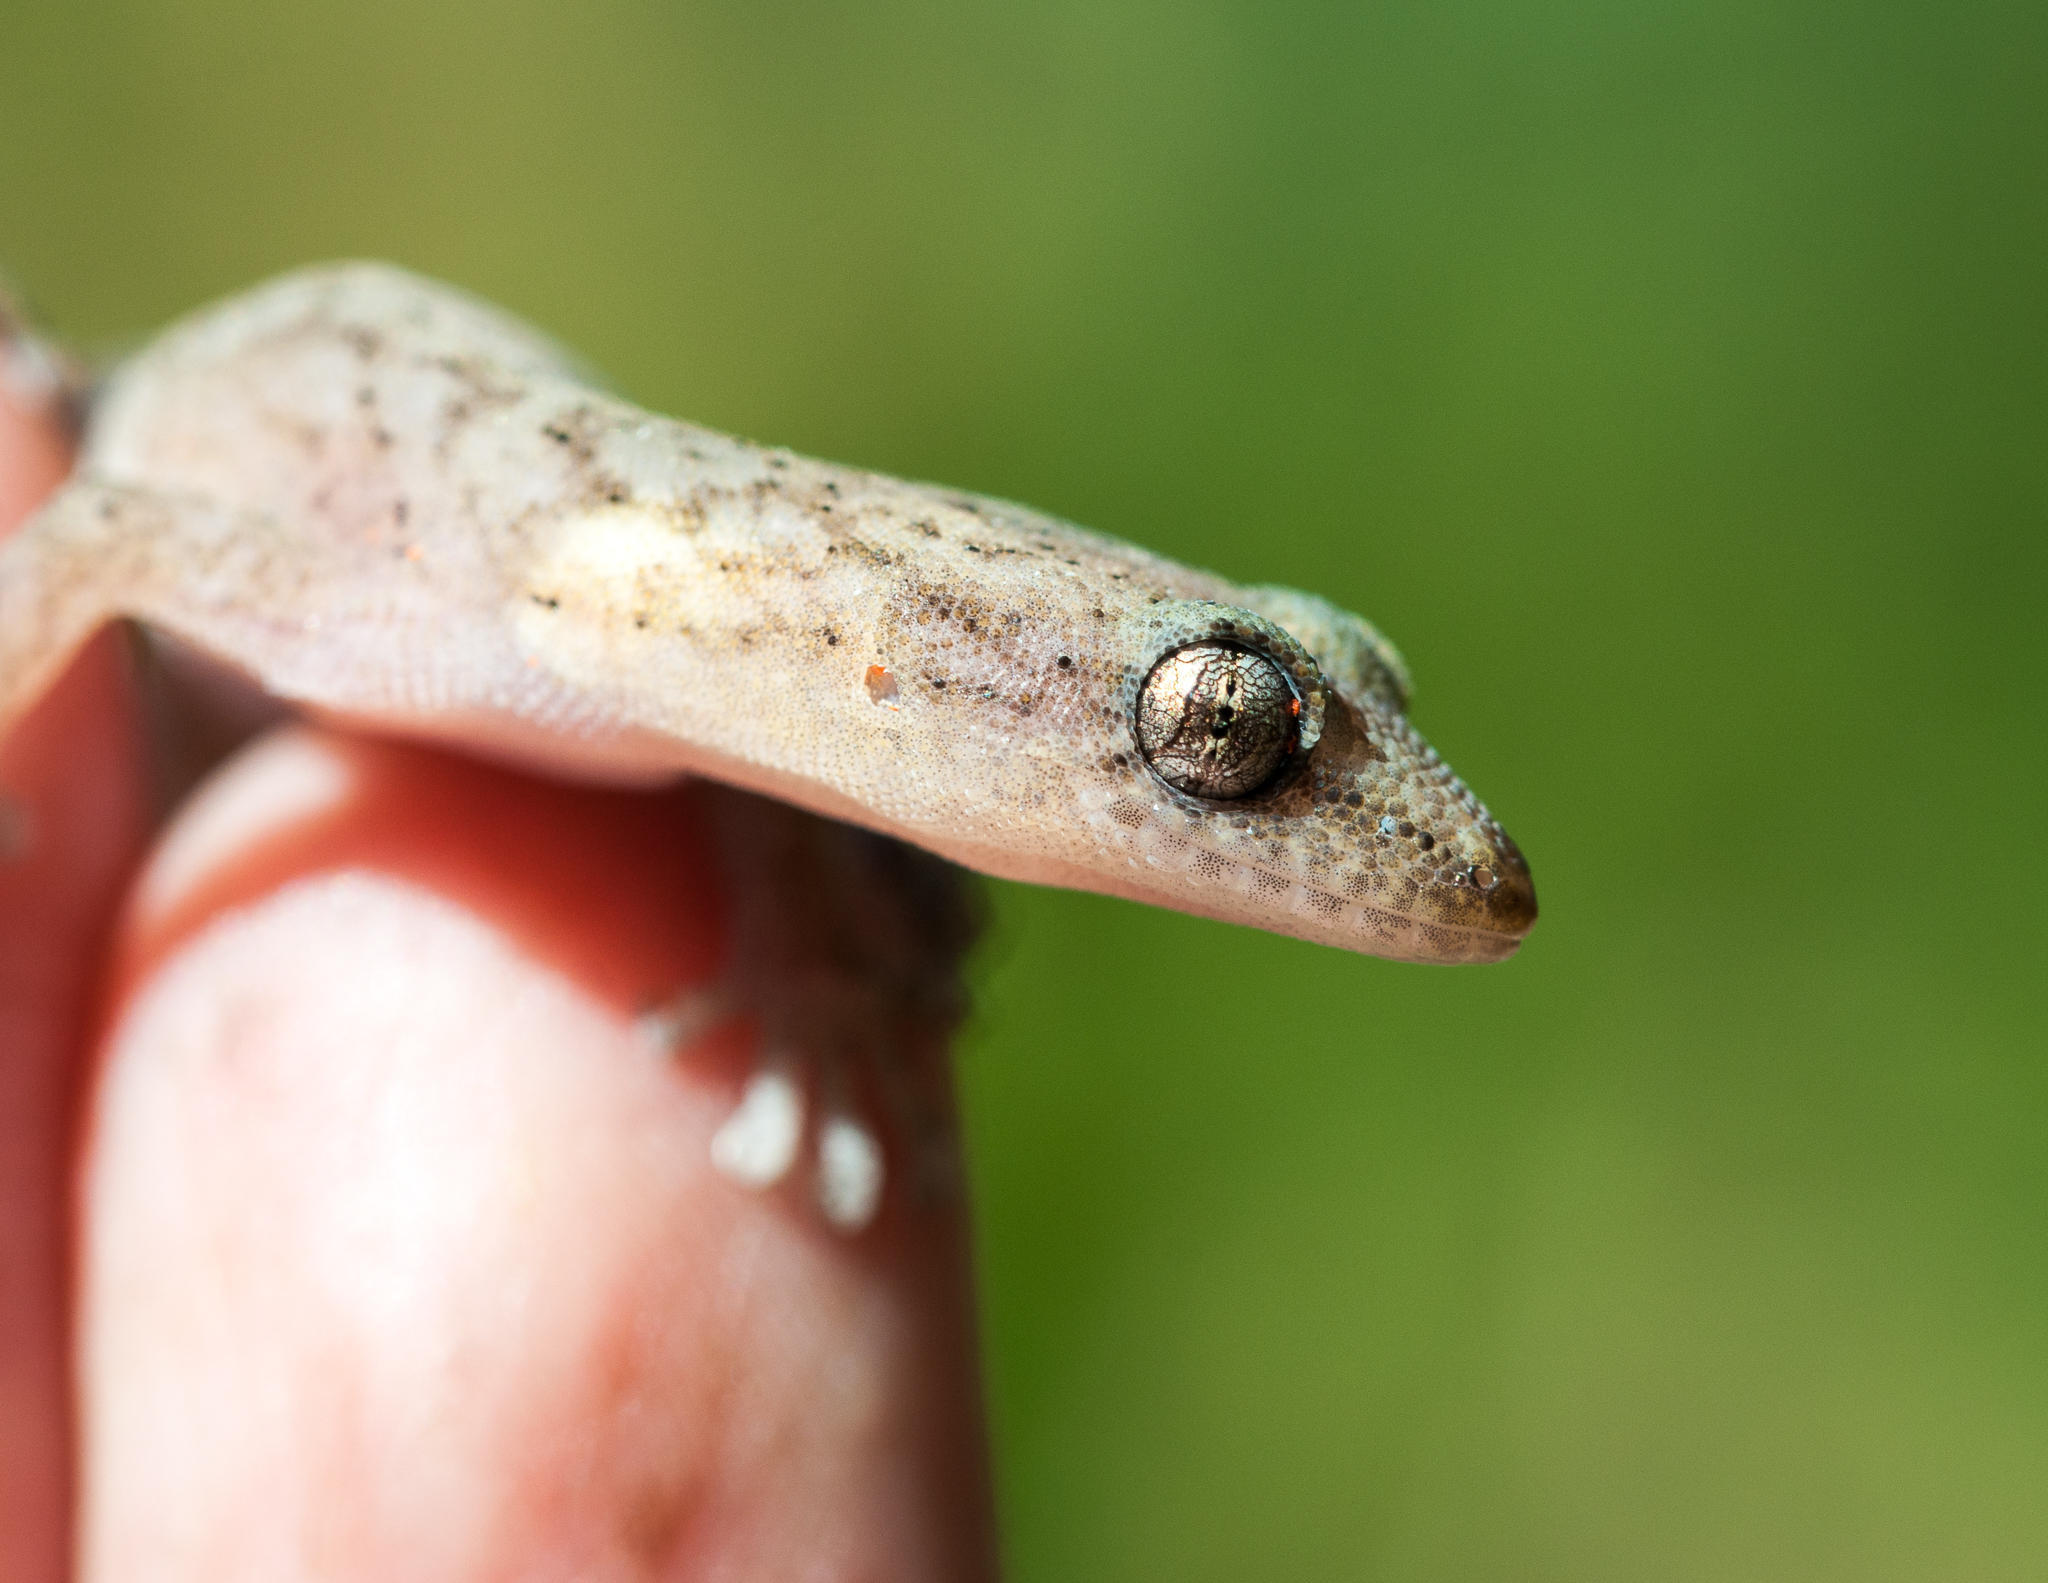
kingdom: Animalia
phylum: Chordata
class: Squamata
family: Gekkonidae
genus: Afrogecko
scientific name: Afrogecko porphyreus
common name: Marbled leaf-toed gecko
